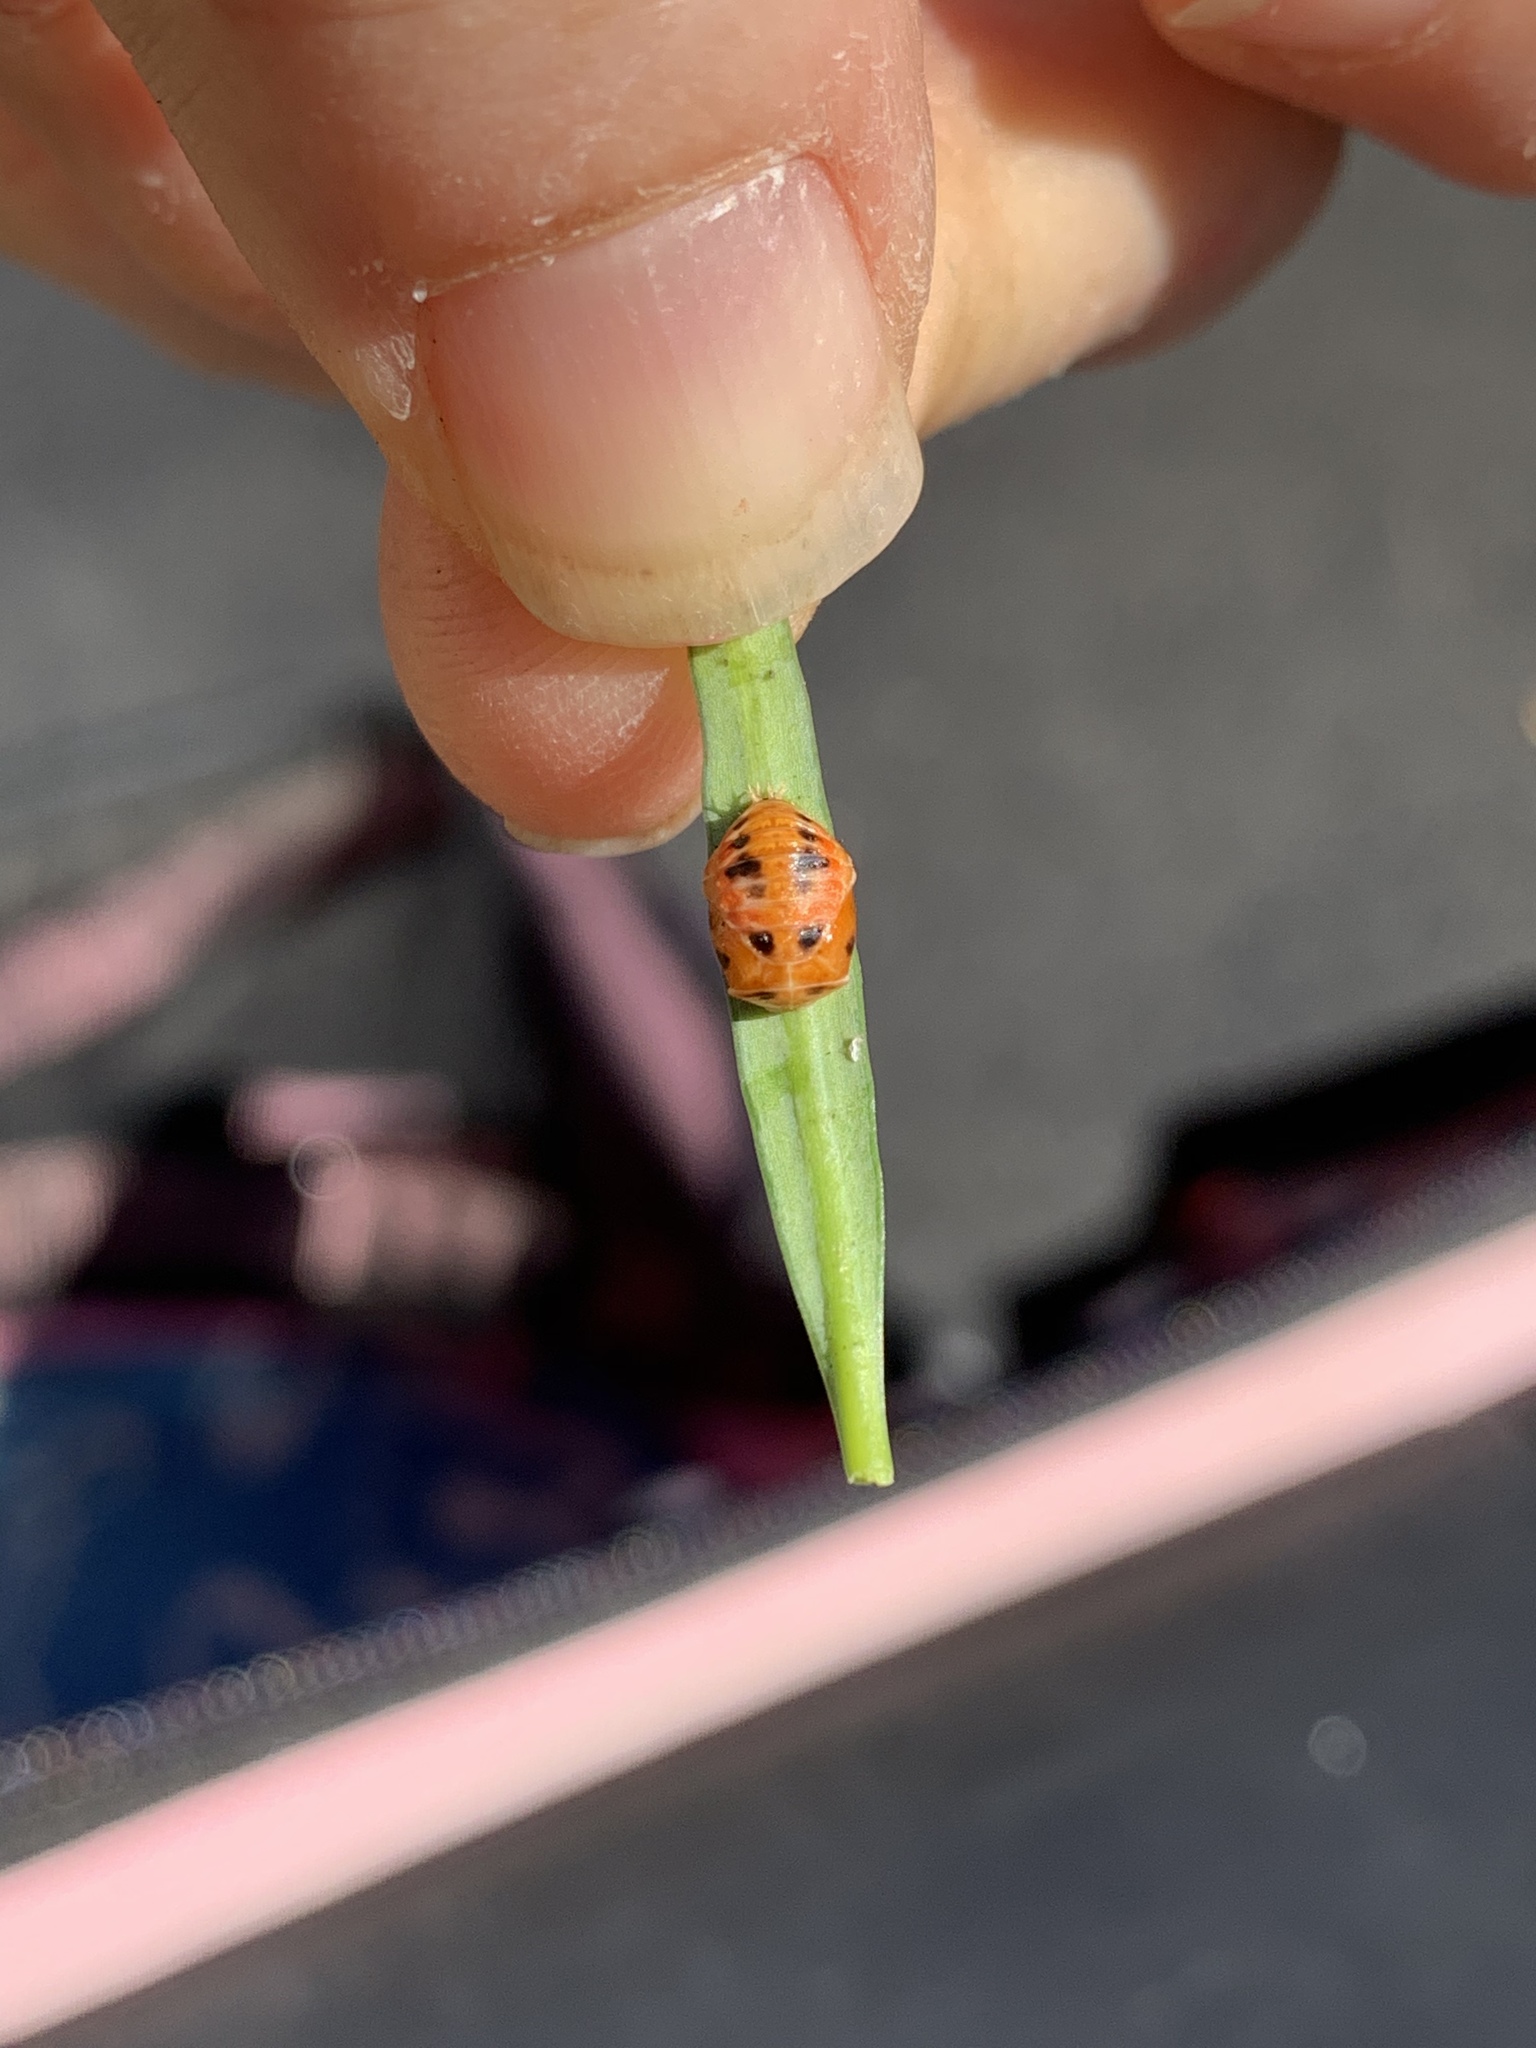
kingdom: Animalia
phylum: Arthropoda
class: Insecta
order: Coleoptera
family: Coccinellidae
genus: Harmonia
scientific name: Harmonia axyridis
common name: Harlequin ladybird
